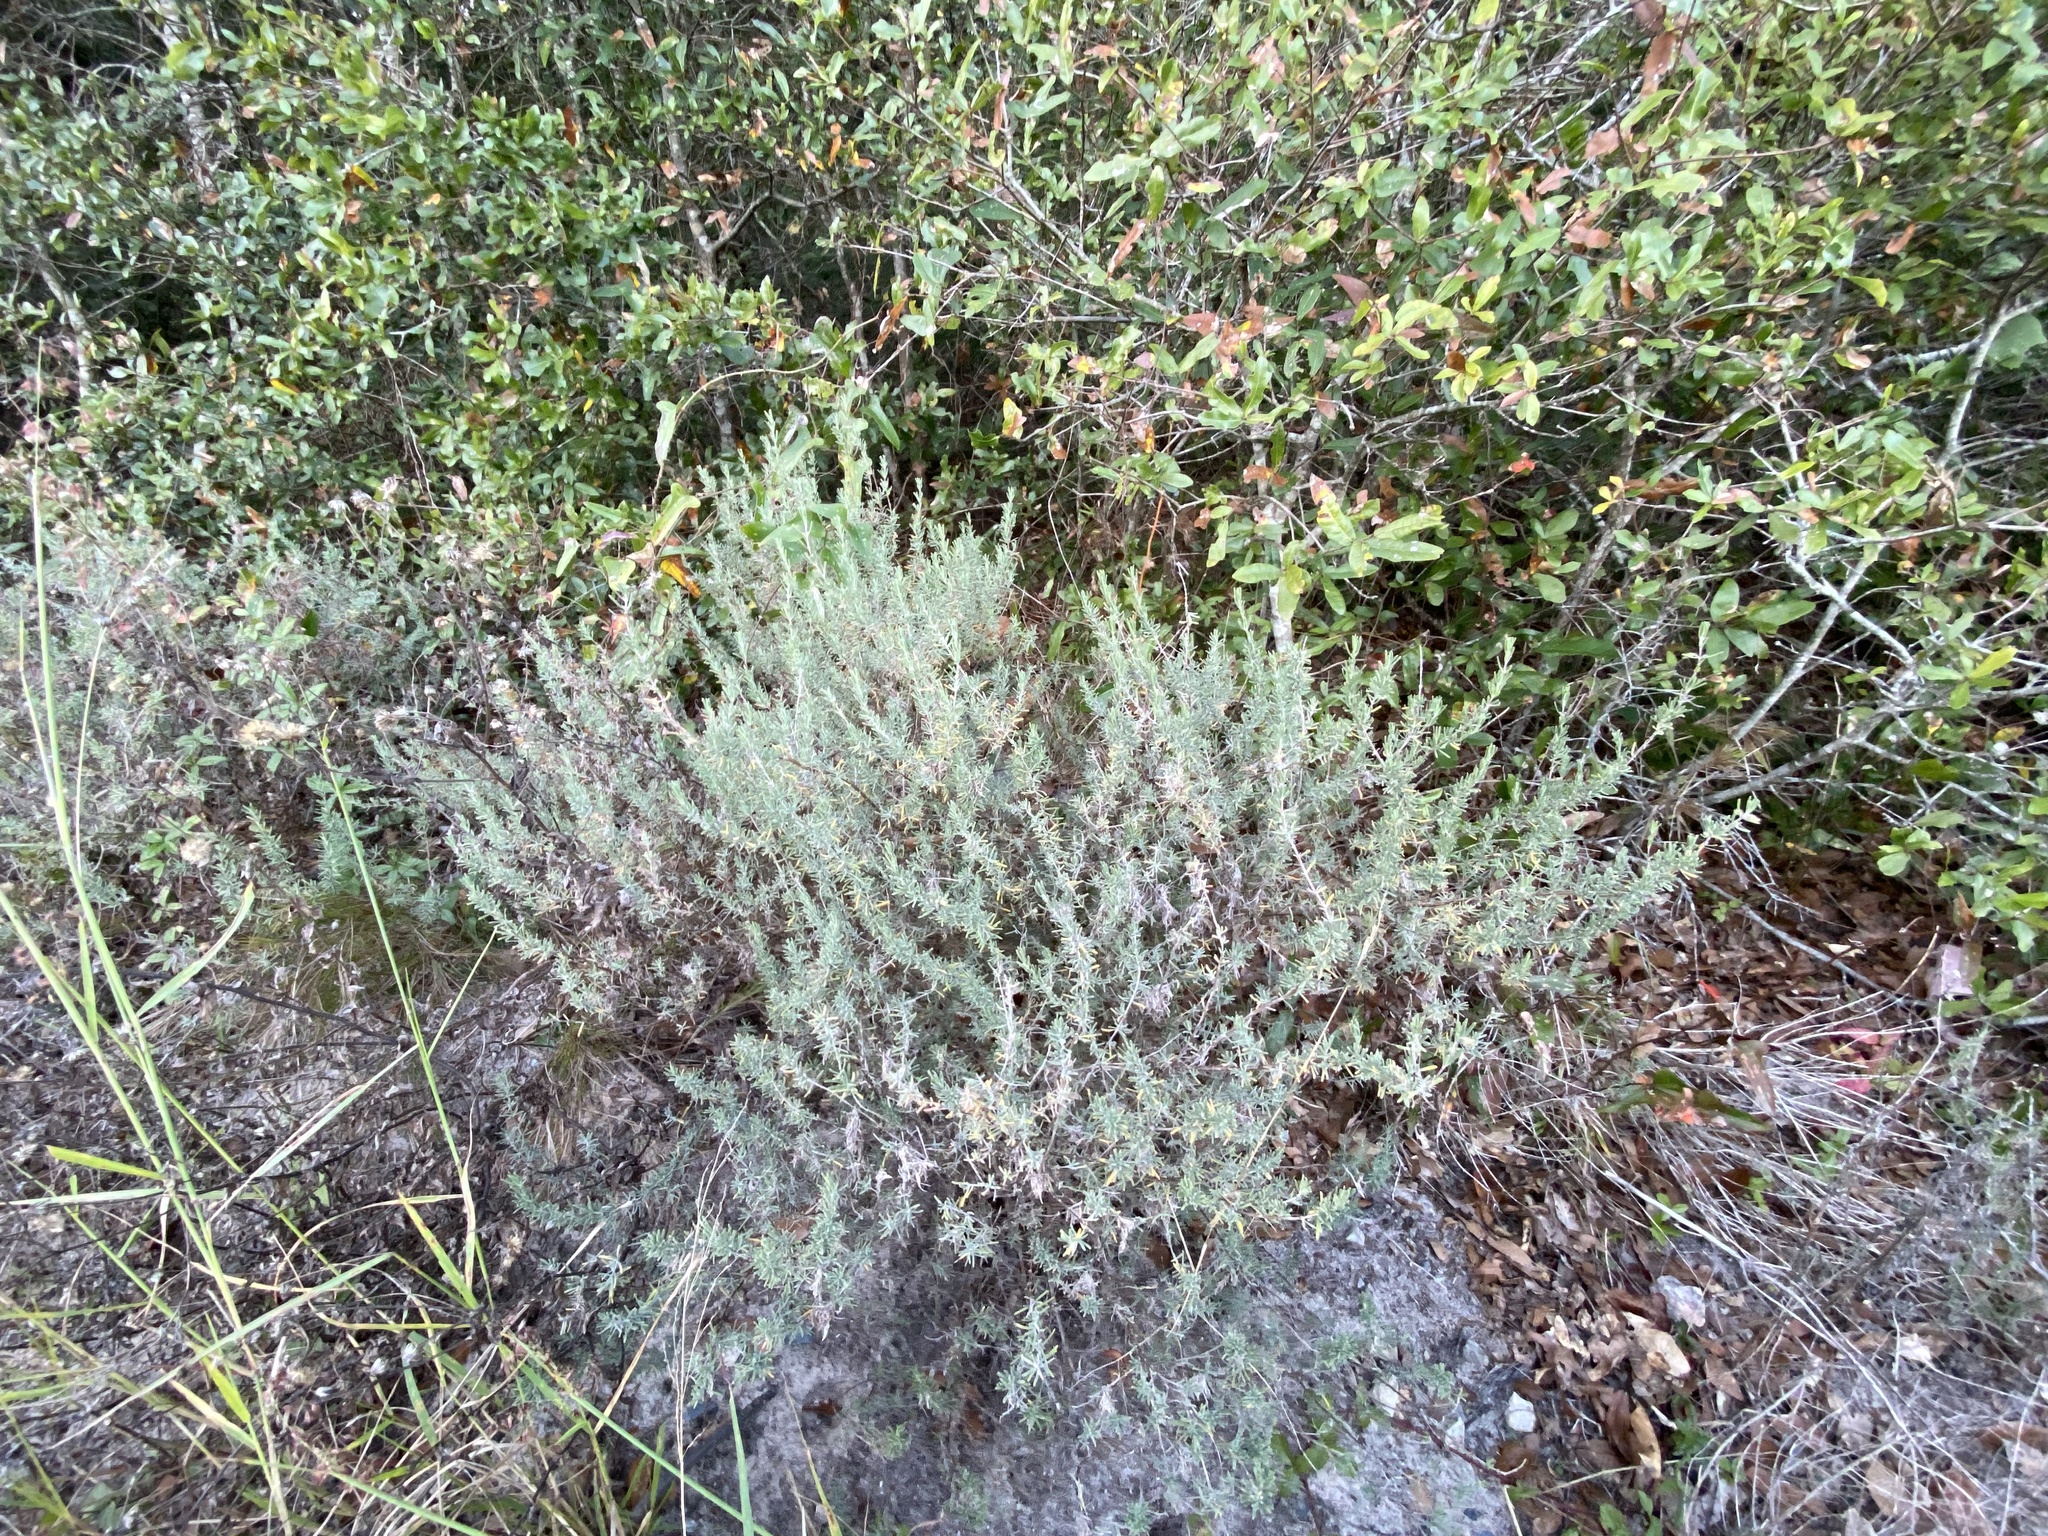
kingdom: Plantae
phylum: Tracheophyta
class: Magnoliopsida
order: Lamiales
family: Lamiaceae
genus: Conradina
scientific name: Conradina canescens
